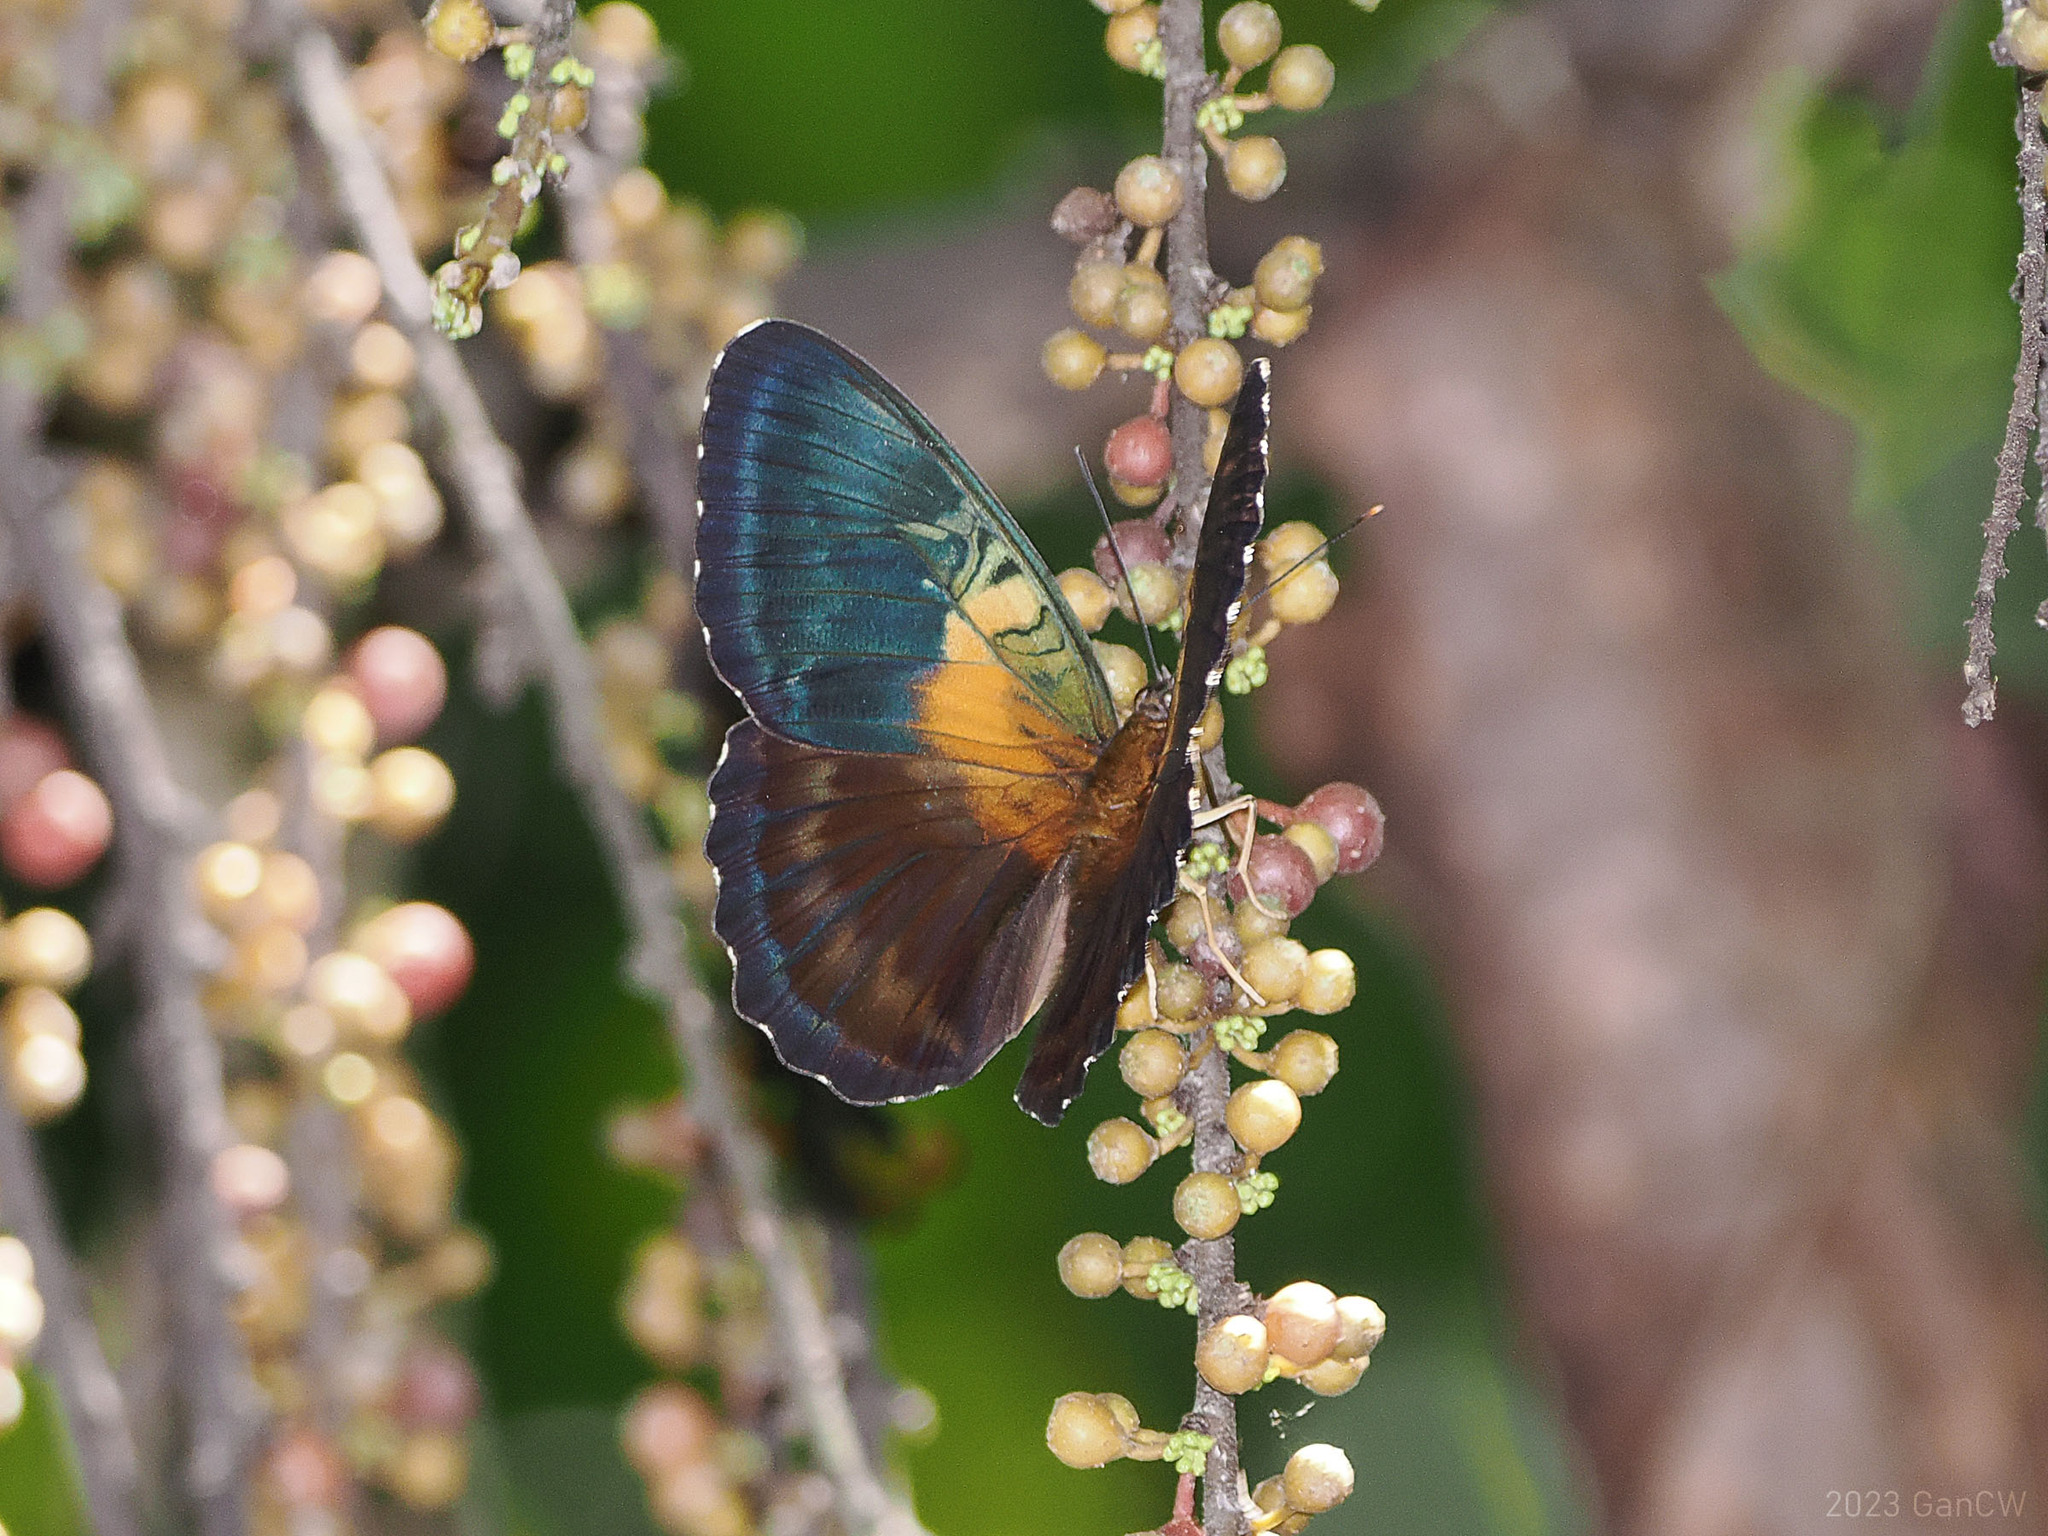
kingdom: Animalia
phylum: Arthropoda
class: Insecta
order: Lepidoptera
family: Nymphalidae
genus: Parthenos
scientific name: Parthenos aspila
